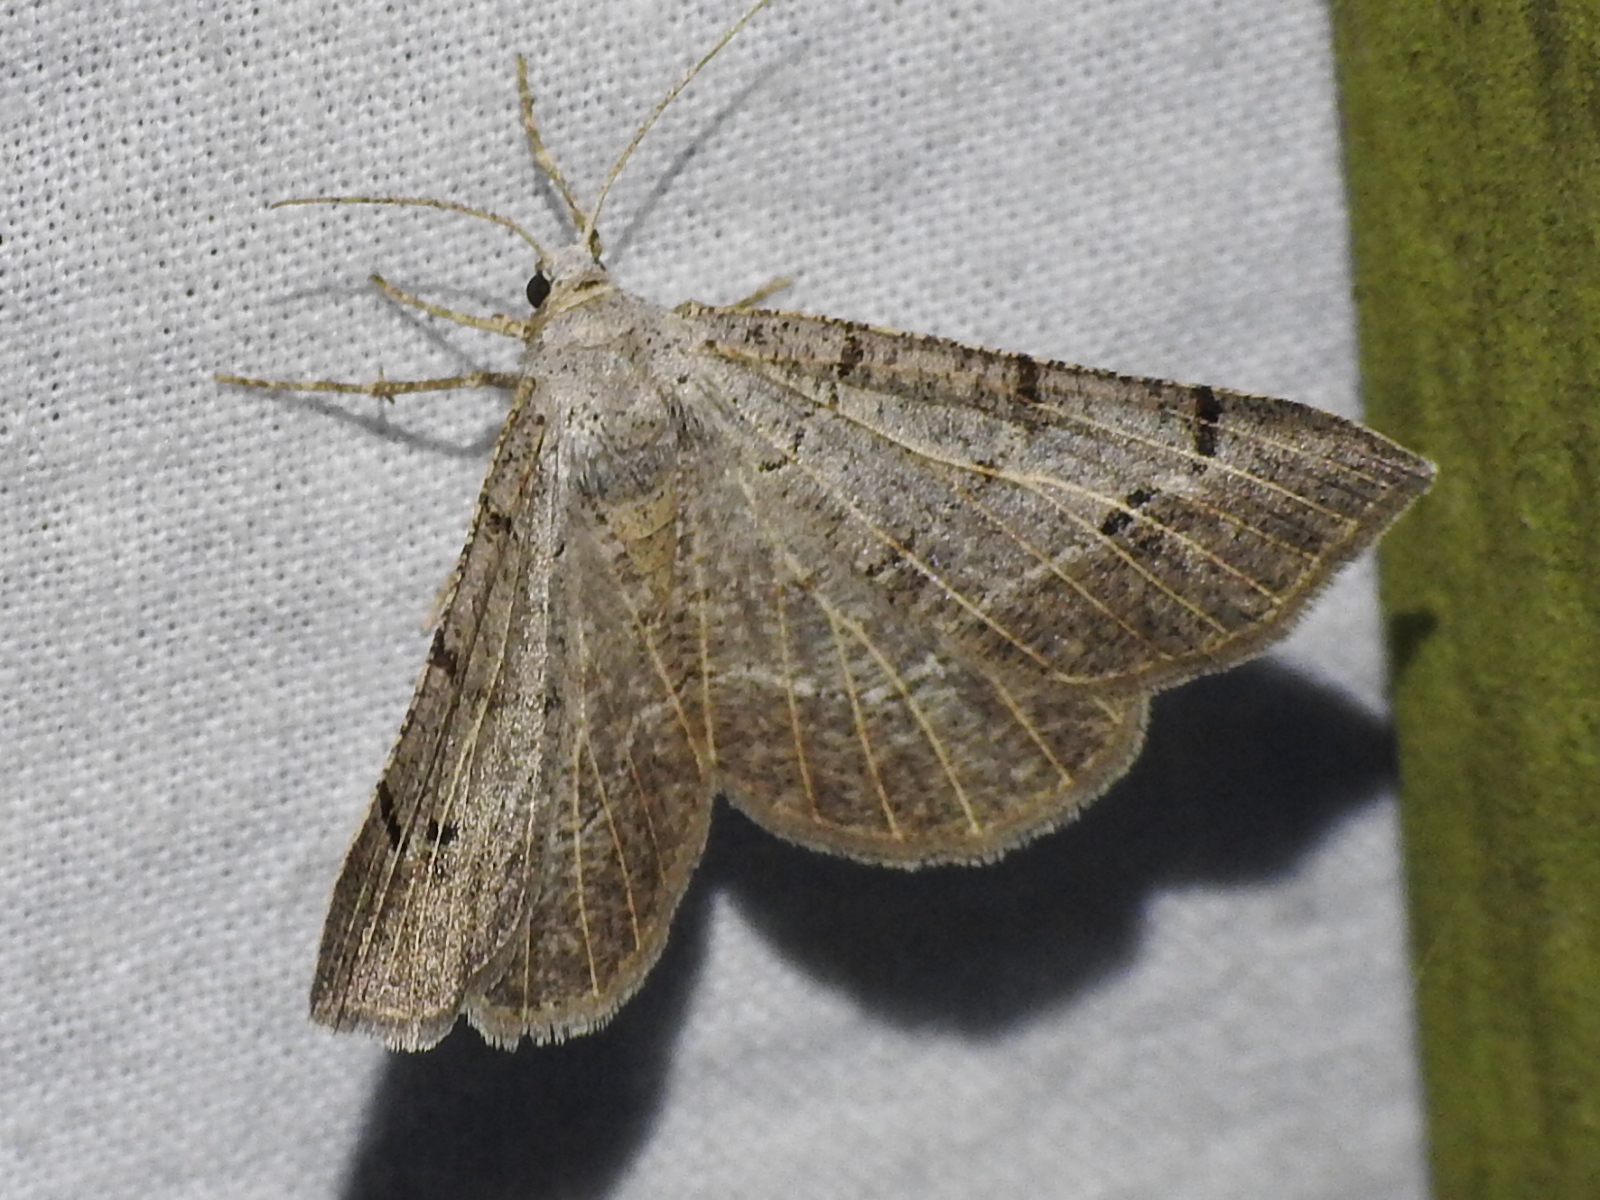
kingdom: Animalia
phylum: Arthropoda
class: Insecta
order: Lepidoptera
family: Geometridae
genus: Isturgia
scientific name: Isturgia dislocaria
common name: Pale-viened enconista
